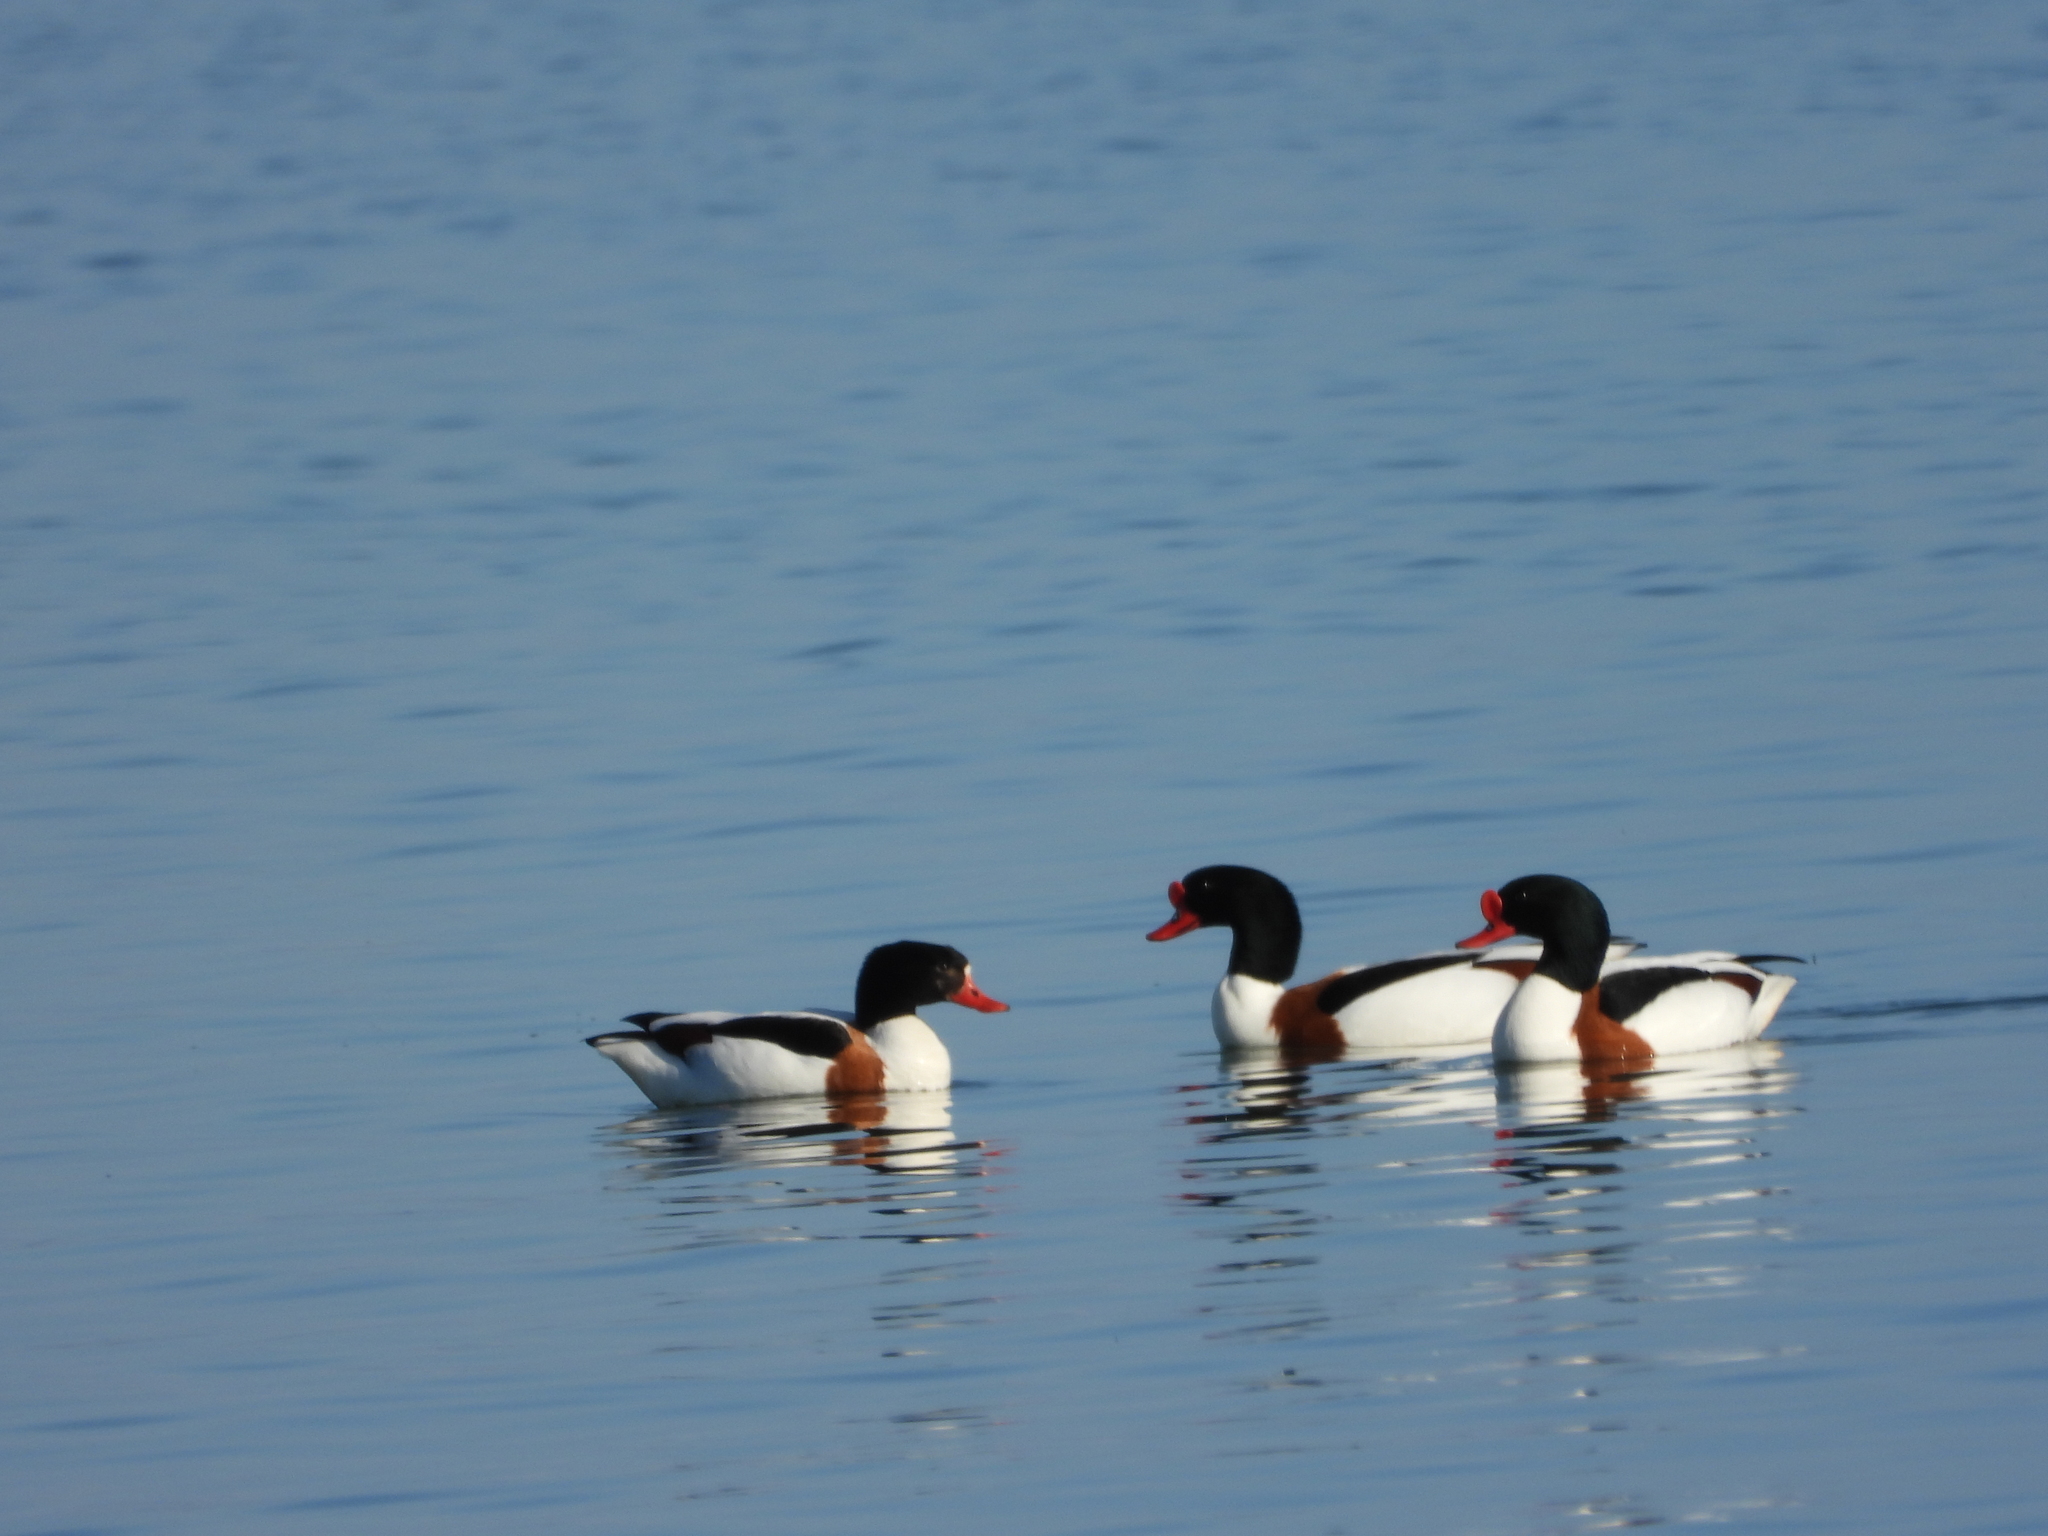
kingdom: Animalia
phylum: Chordata
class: Aves
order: Anseriformes
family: Anatidae
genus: Tadorna
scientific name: Tadorna tadorna
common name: Common shelduck
